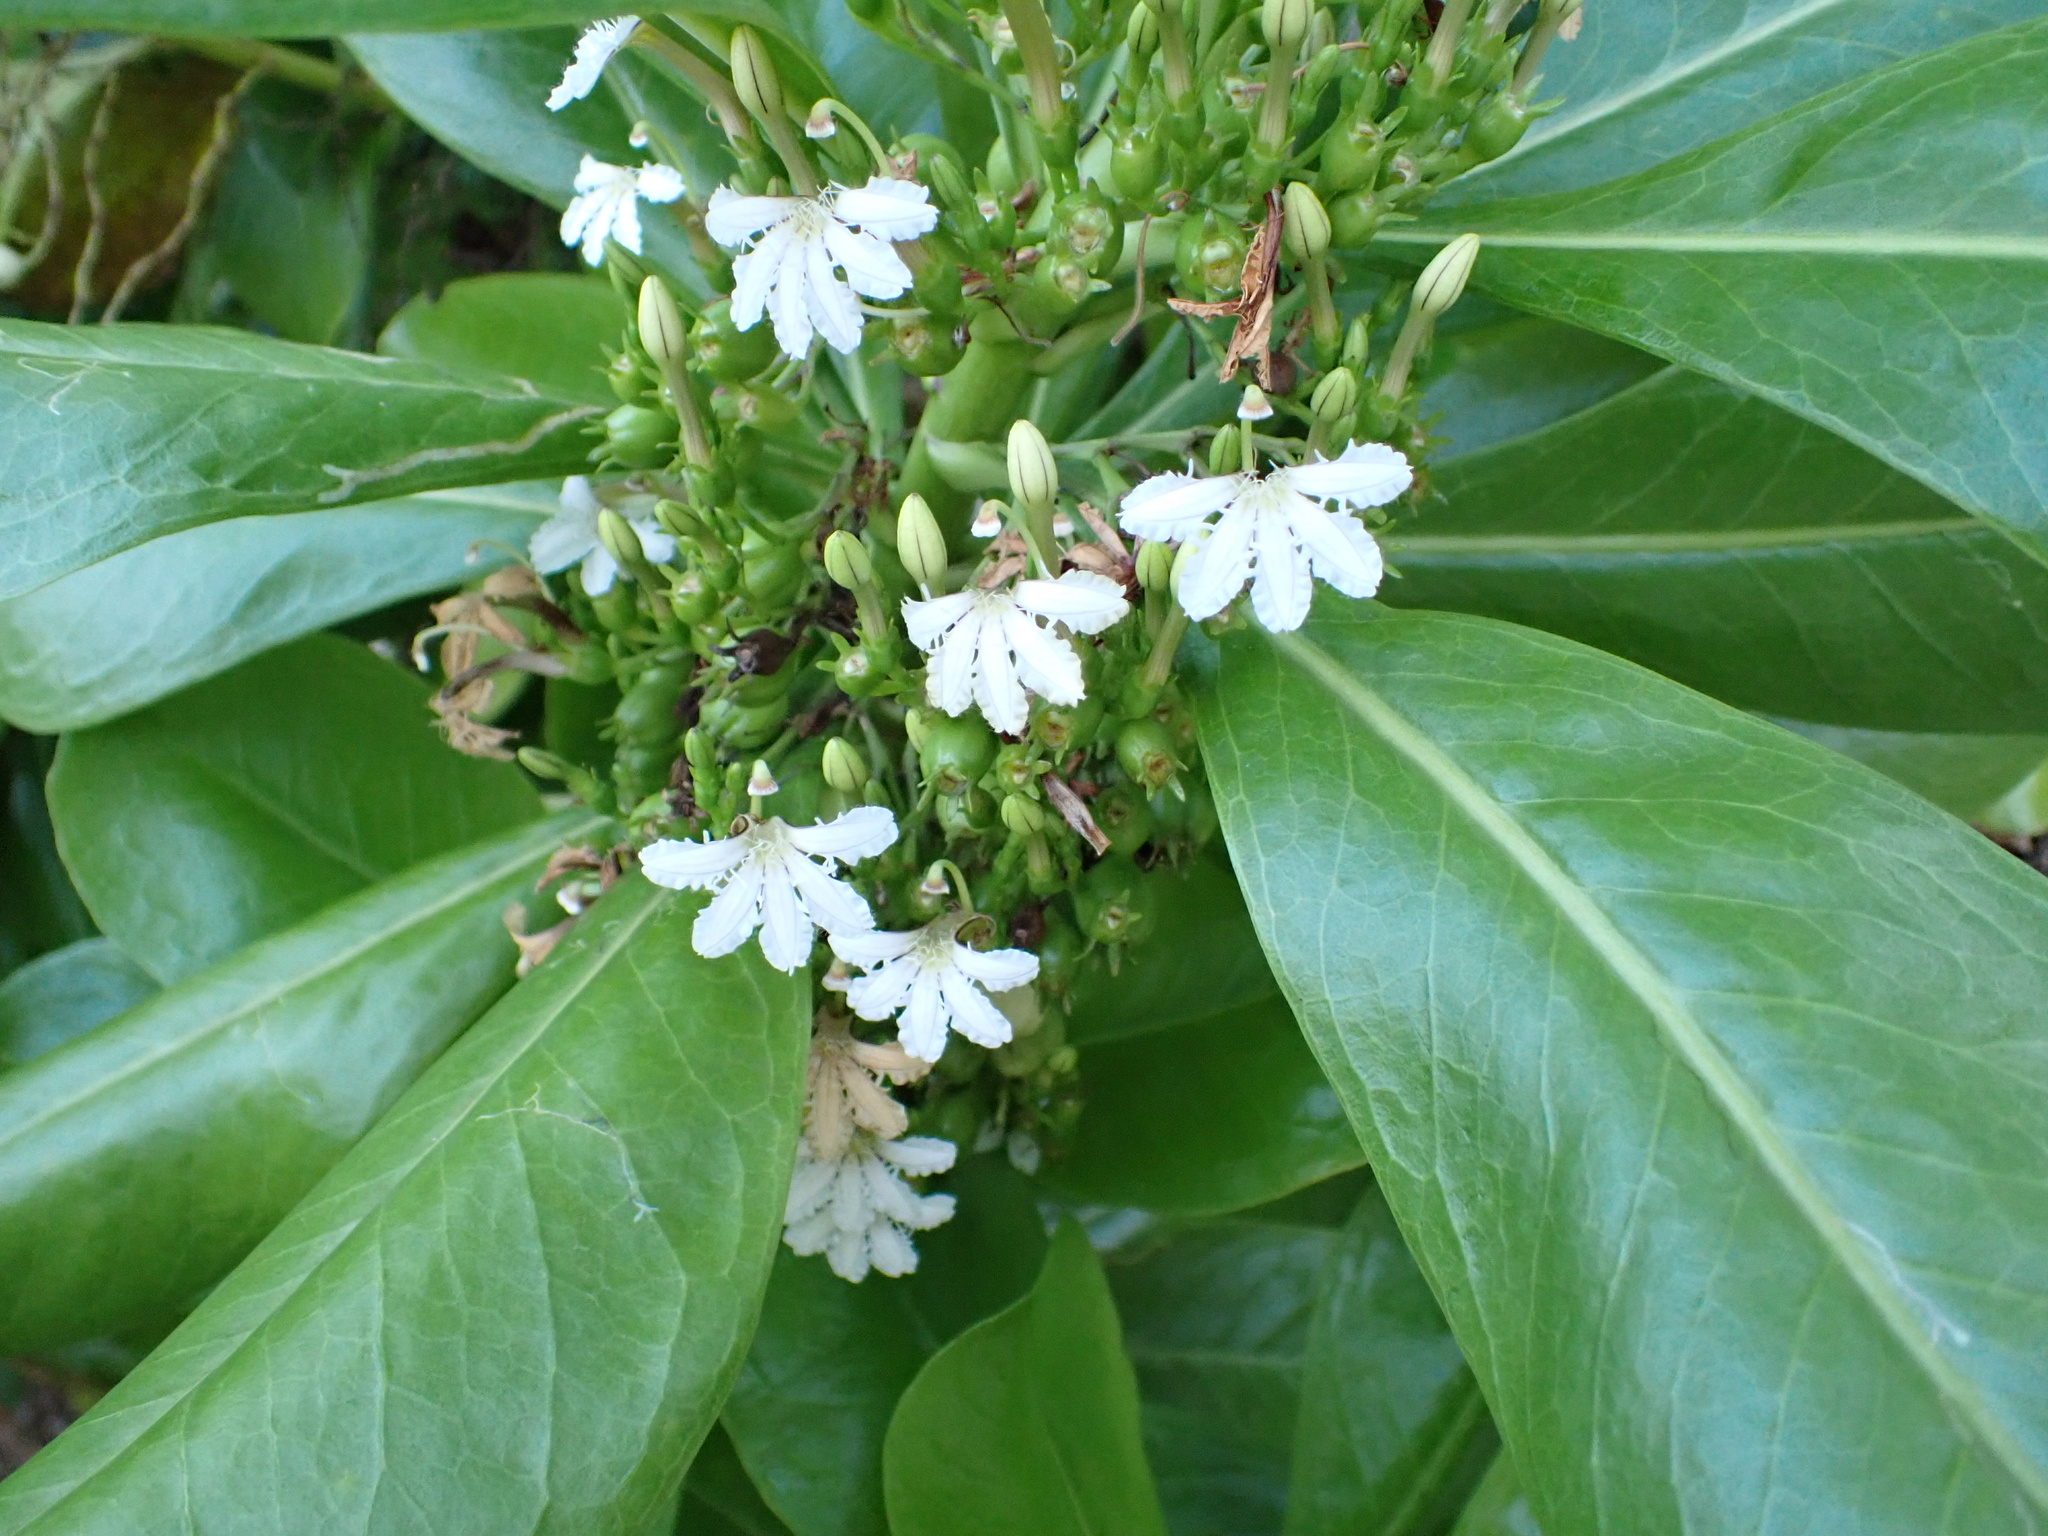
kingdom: Plantae
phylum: Tracheophyta
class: Magnoliopsida
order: Asterales
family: Goodeniaceae
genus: Scaevola
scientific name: Scaevola taccada
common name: Sea lettucetree
